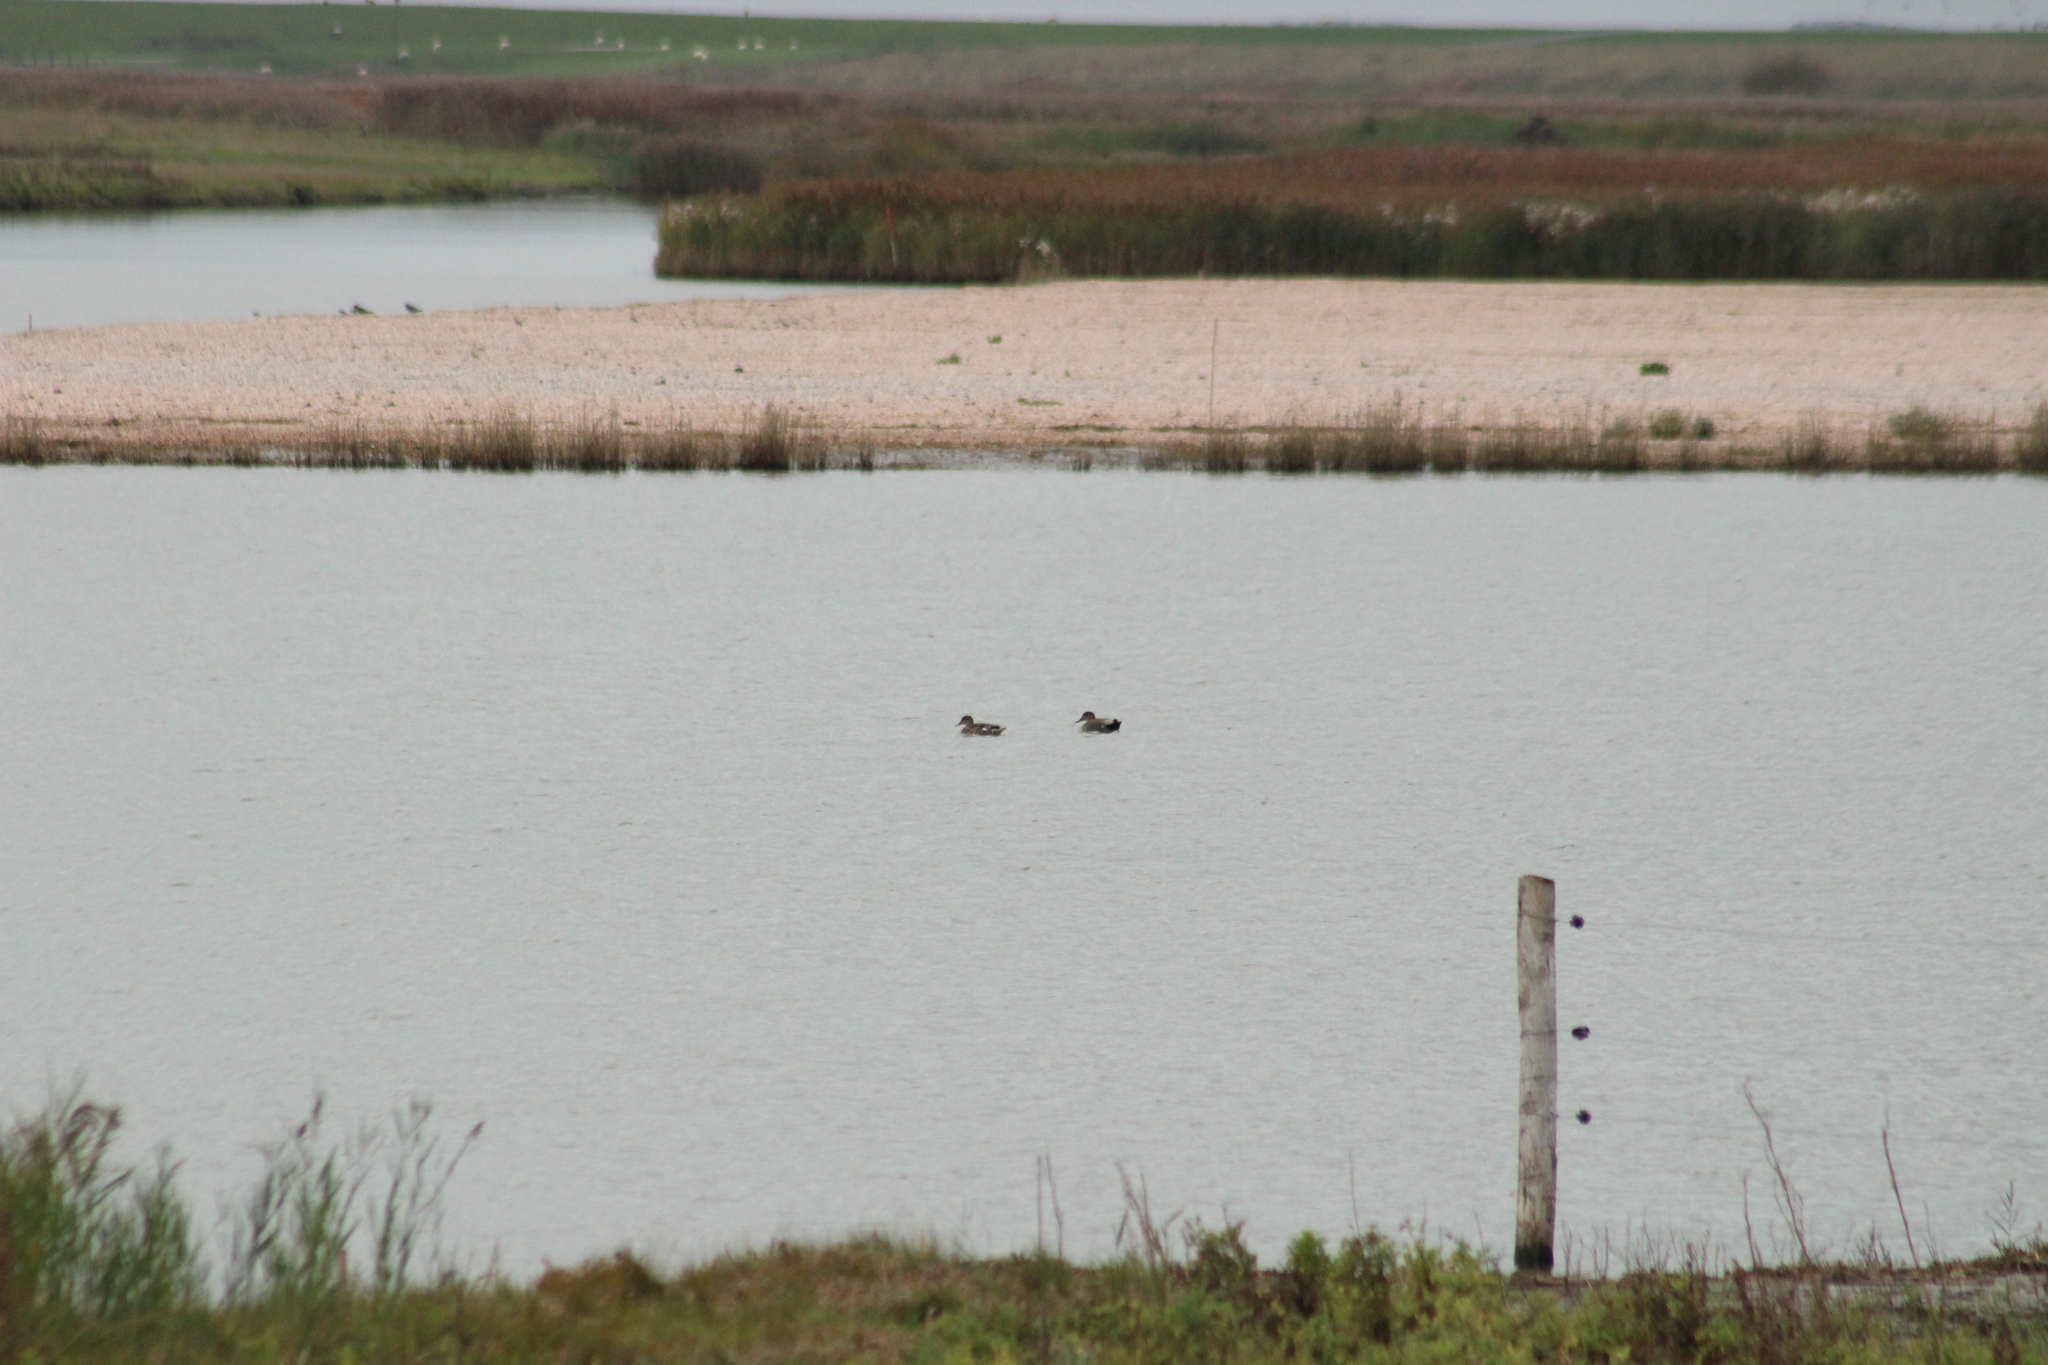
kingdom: Animalia
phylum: Chordata
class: Aves
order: Anseriformes
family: Anatidae
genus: Mareca
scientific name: Mareca strepera
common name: Gadwall
